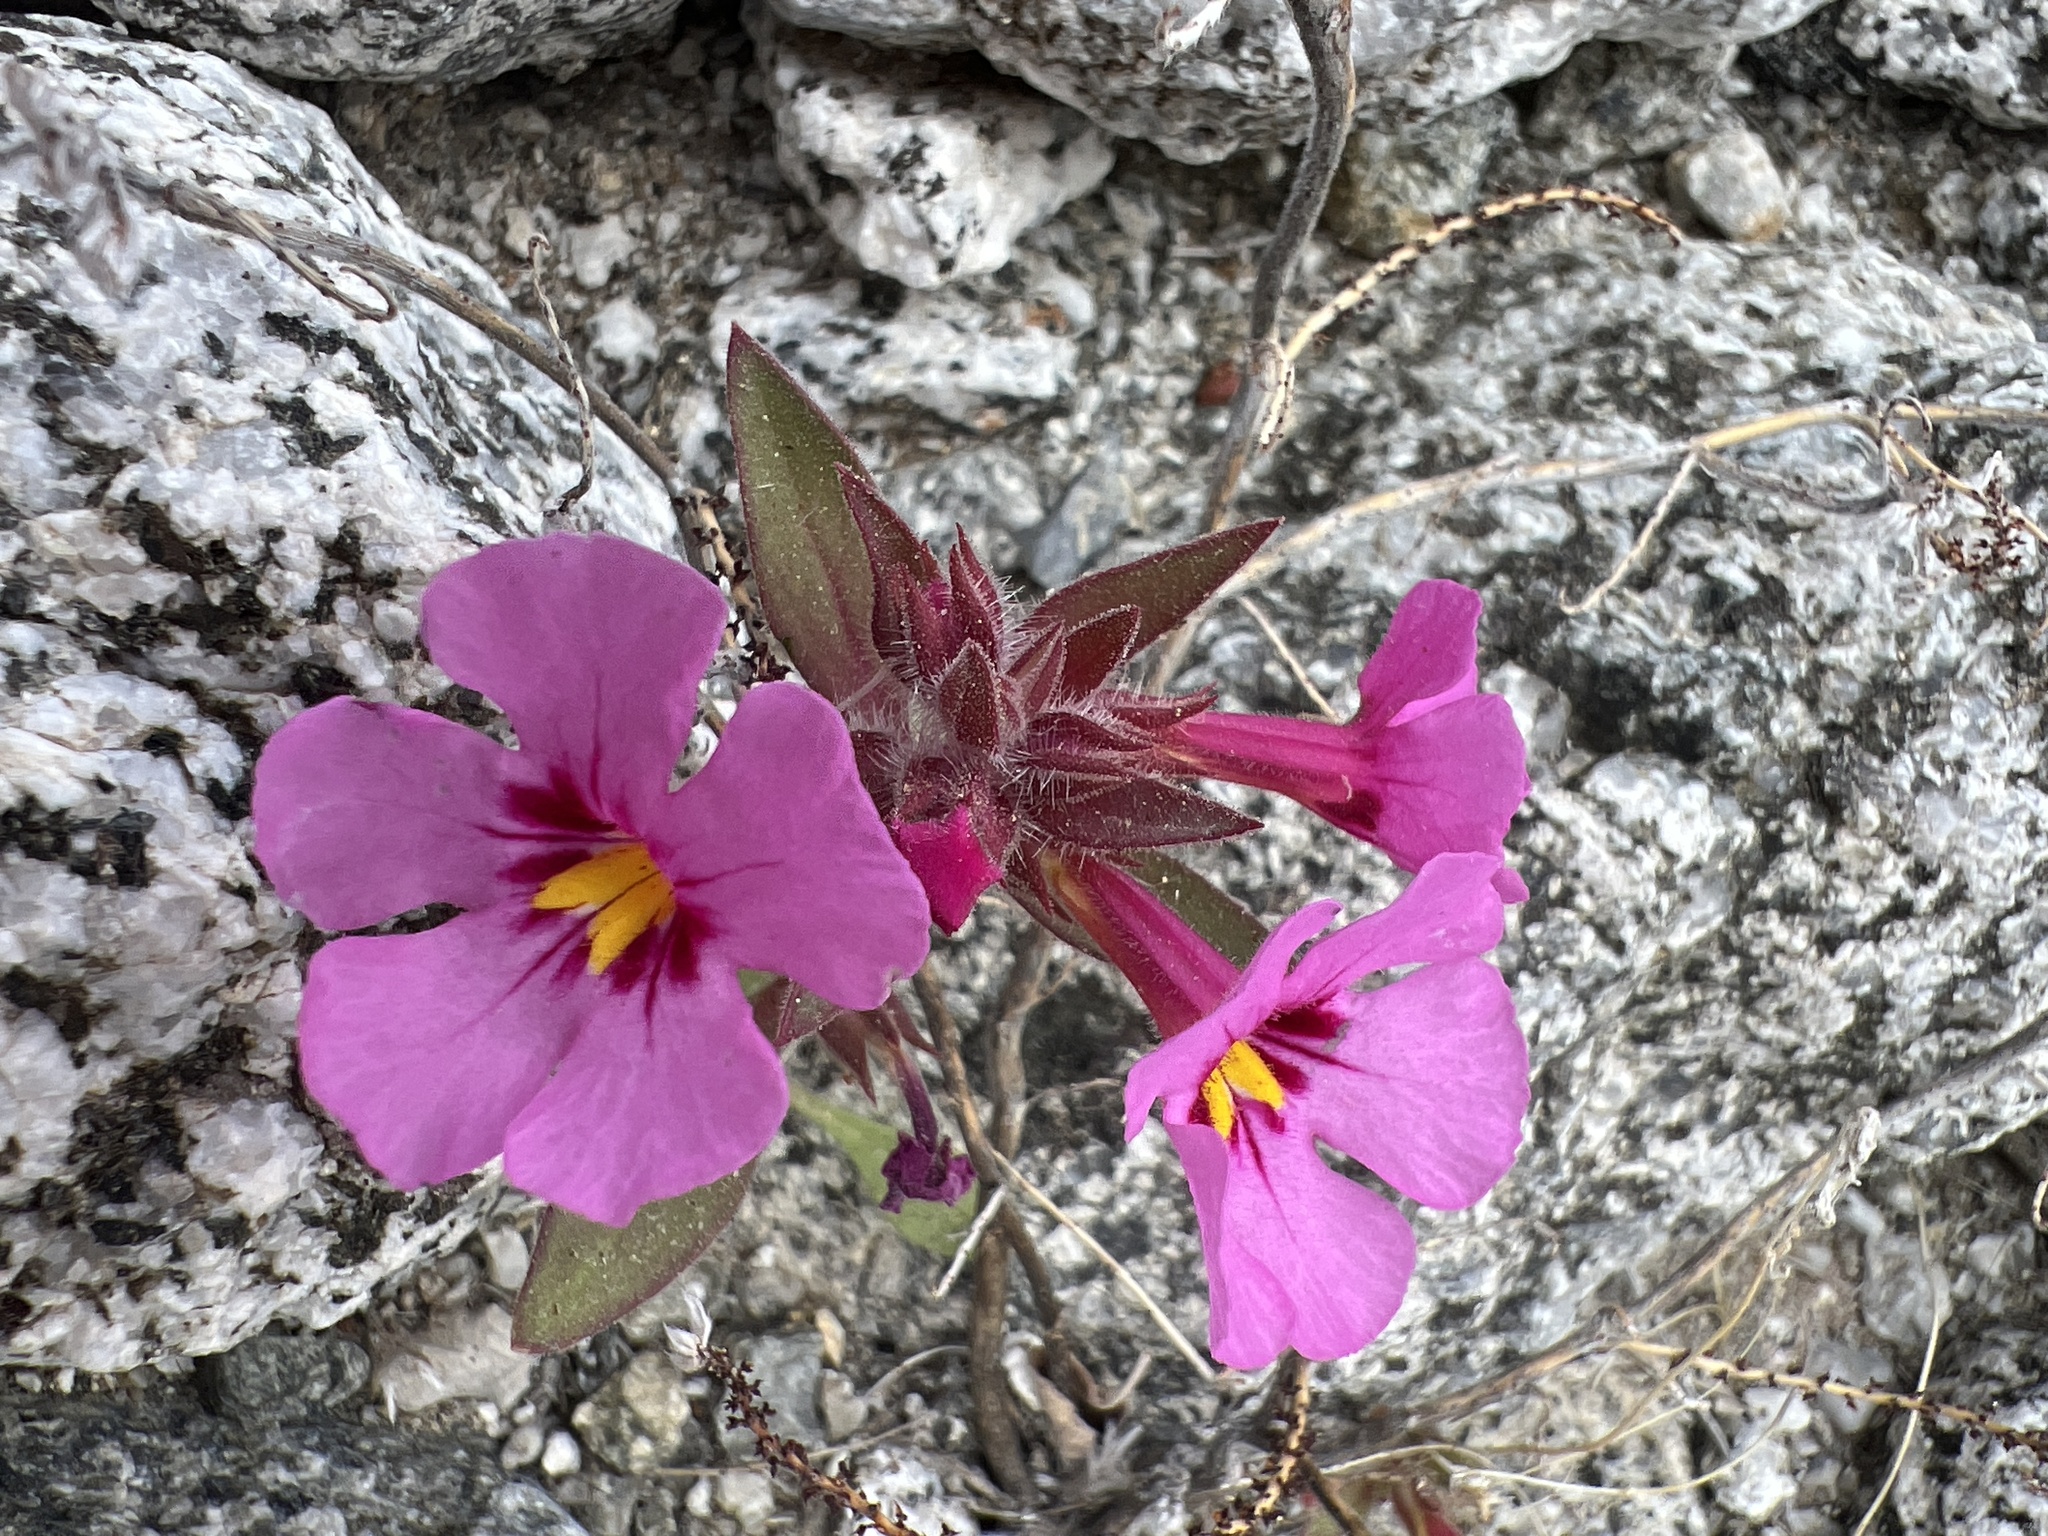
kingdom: Plantae
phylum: Tracheophyta
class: Magnoliopsida
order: Lamiales
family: Phrymaceae
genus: Diplacus
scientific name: Diplacus bigelovii
